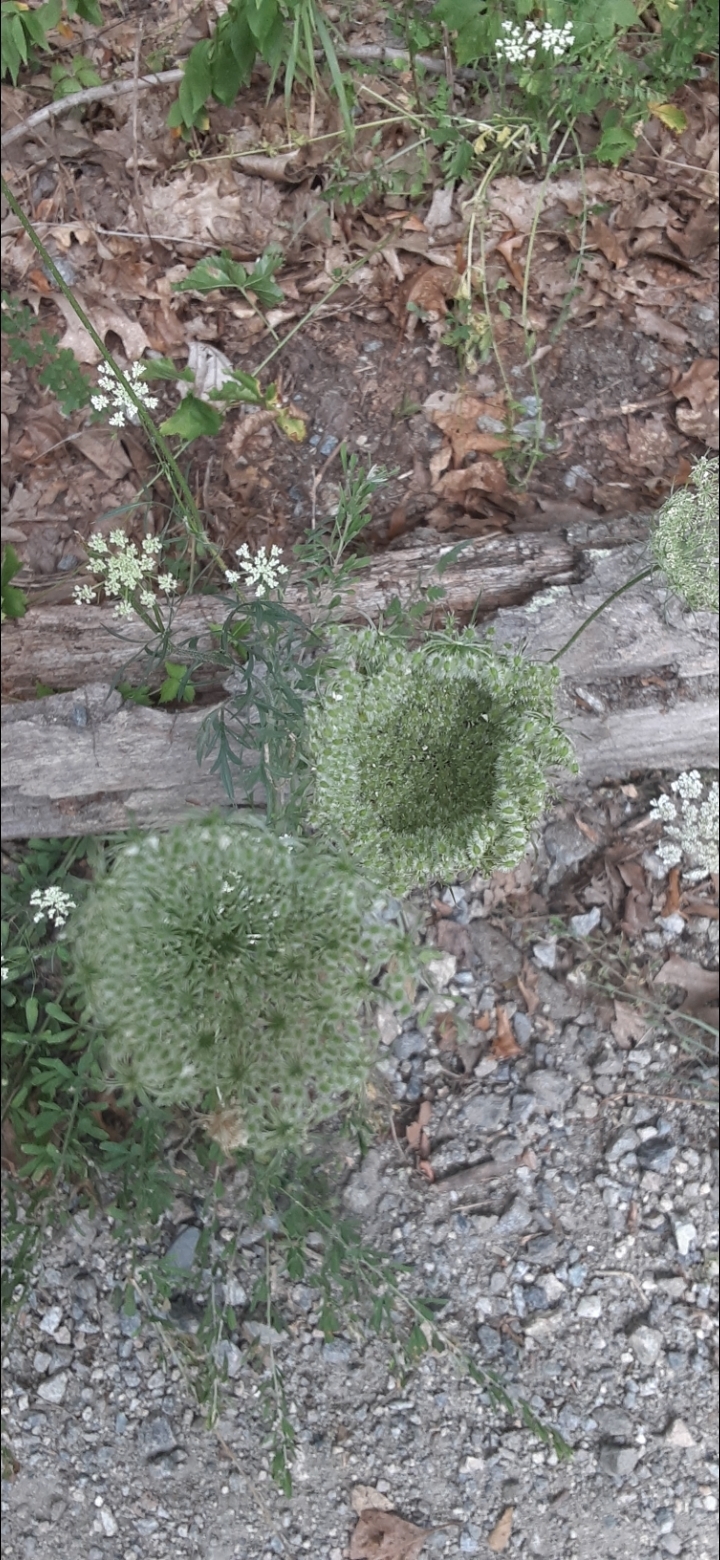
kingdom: Plantae
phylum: Tracheophyta
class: Magnoliopsida
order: Apiales
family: Apiaceae
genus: Daucus
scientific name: Daucus carota
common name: Wild carrot
